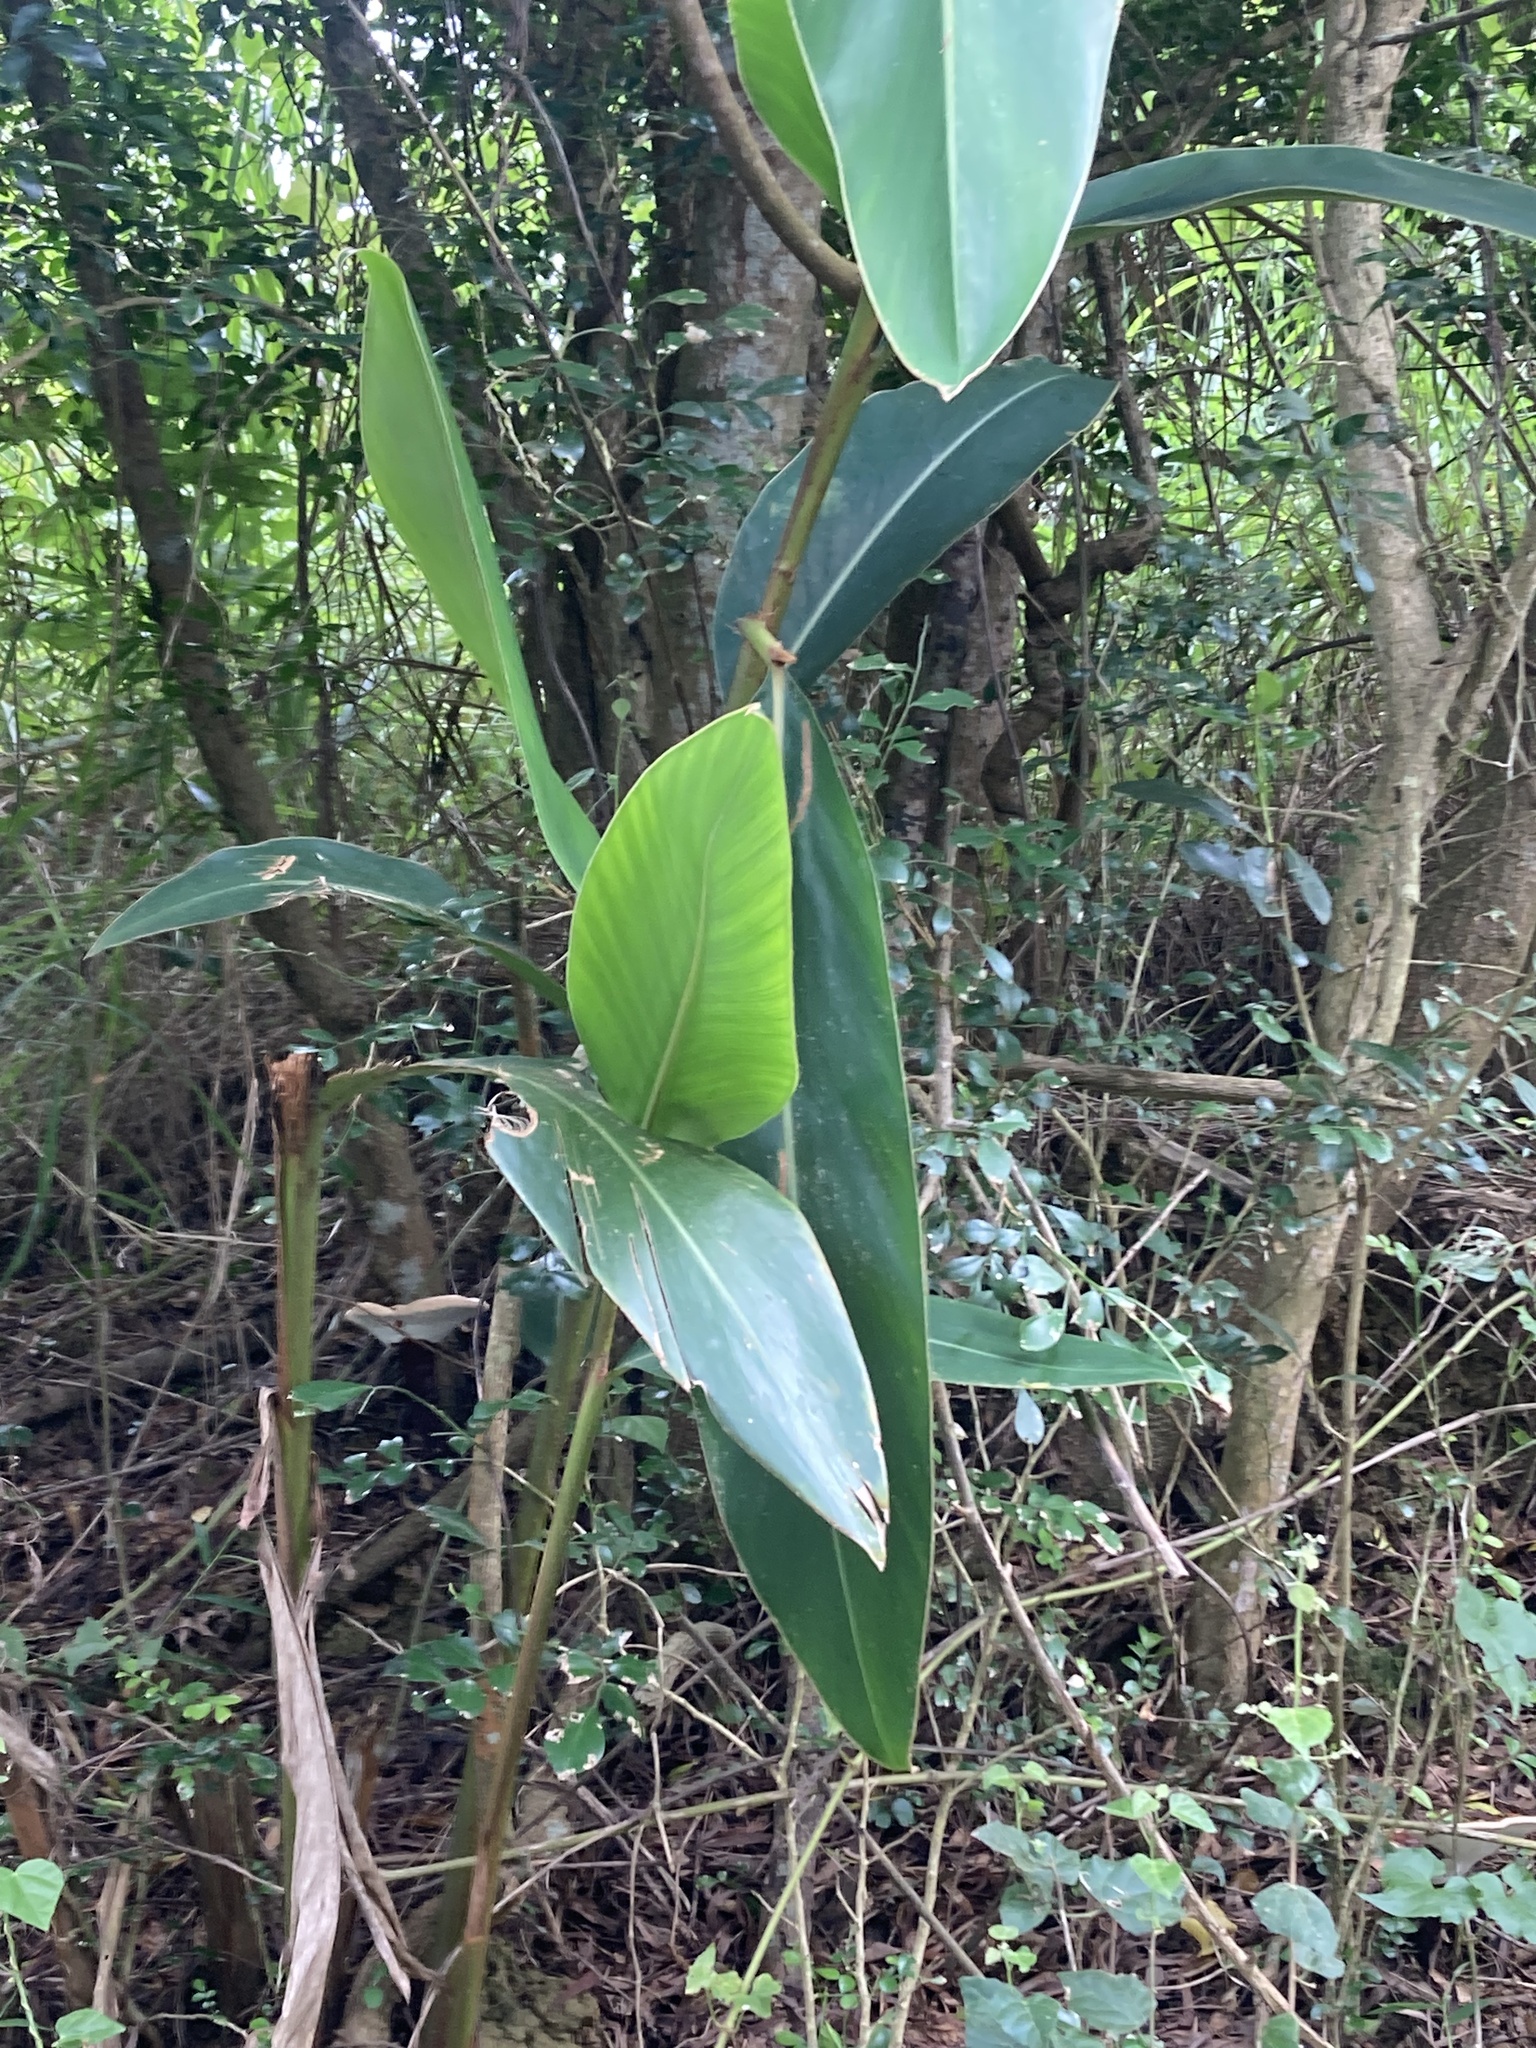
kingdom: Plantae
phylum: Tracheophyta
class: Liliopsida
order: Zingiberales
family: Zingiberaceae
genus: Alpinia
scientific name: Alpinia zerumbet
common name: Shellplant
